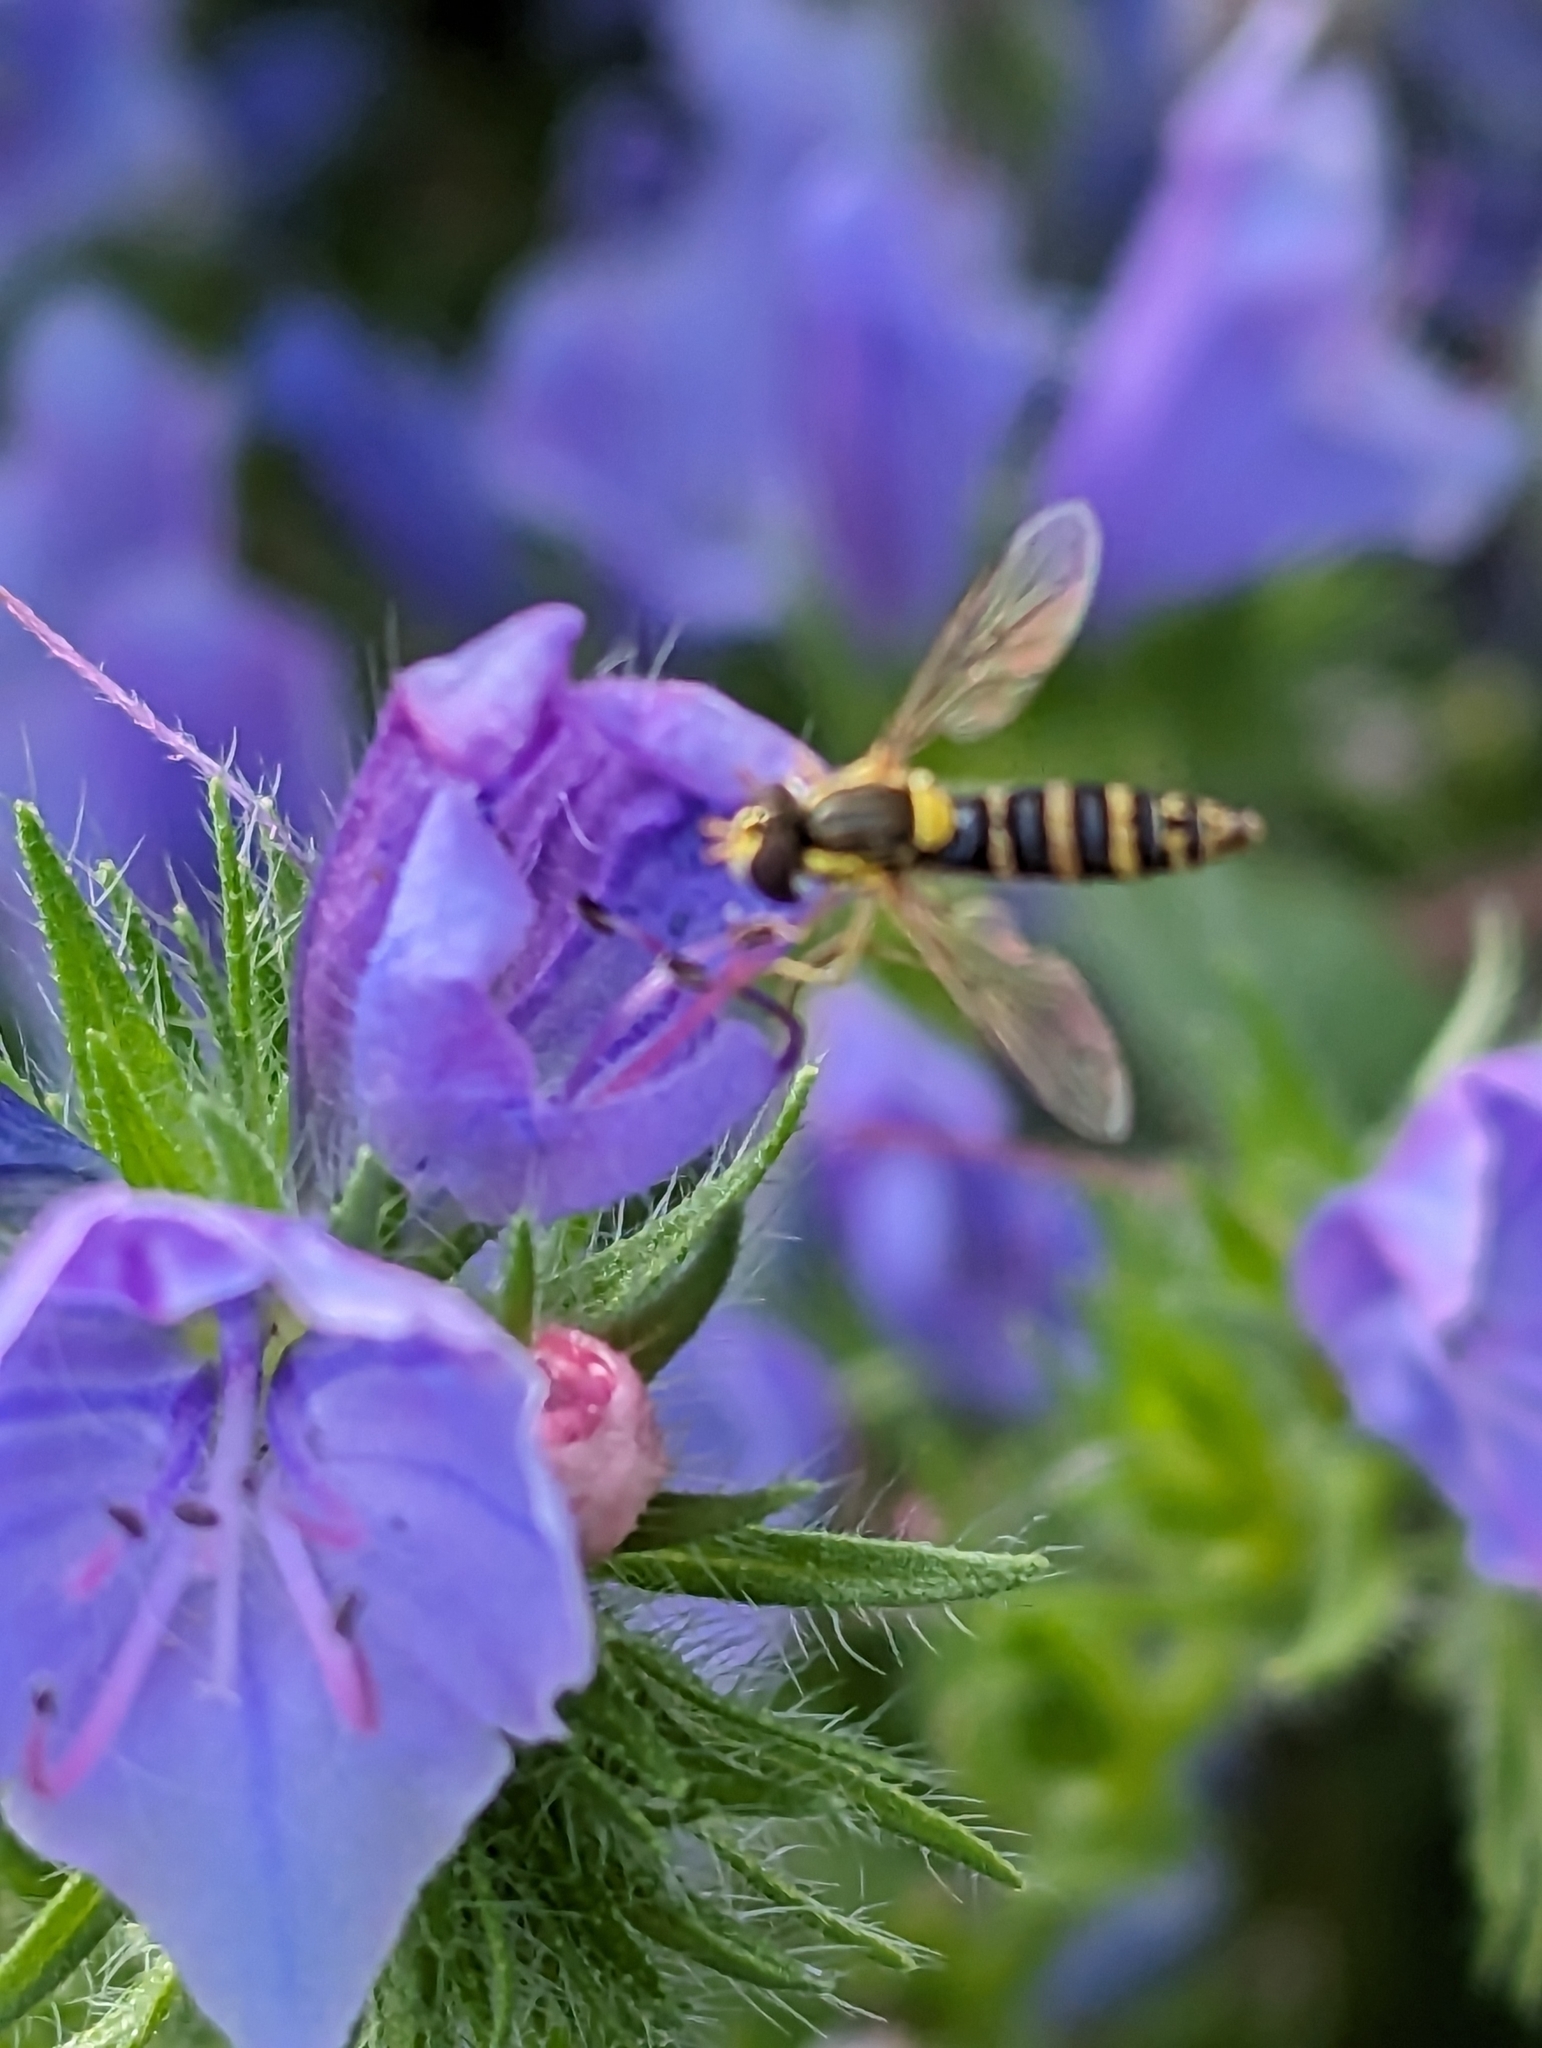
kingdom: Animalia
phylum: Arthropoda
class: Insecta
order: Diptera
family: Syrphidae
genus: Sphaerophoria
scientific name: Sphaerophoria
